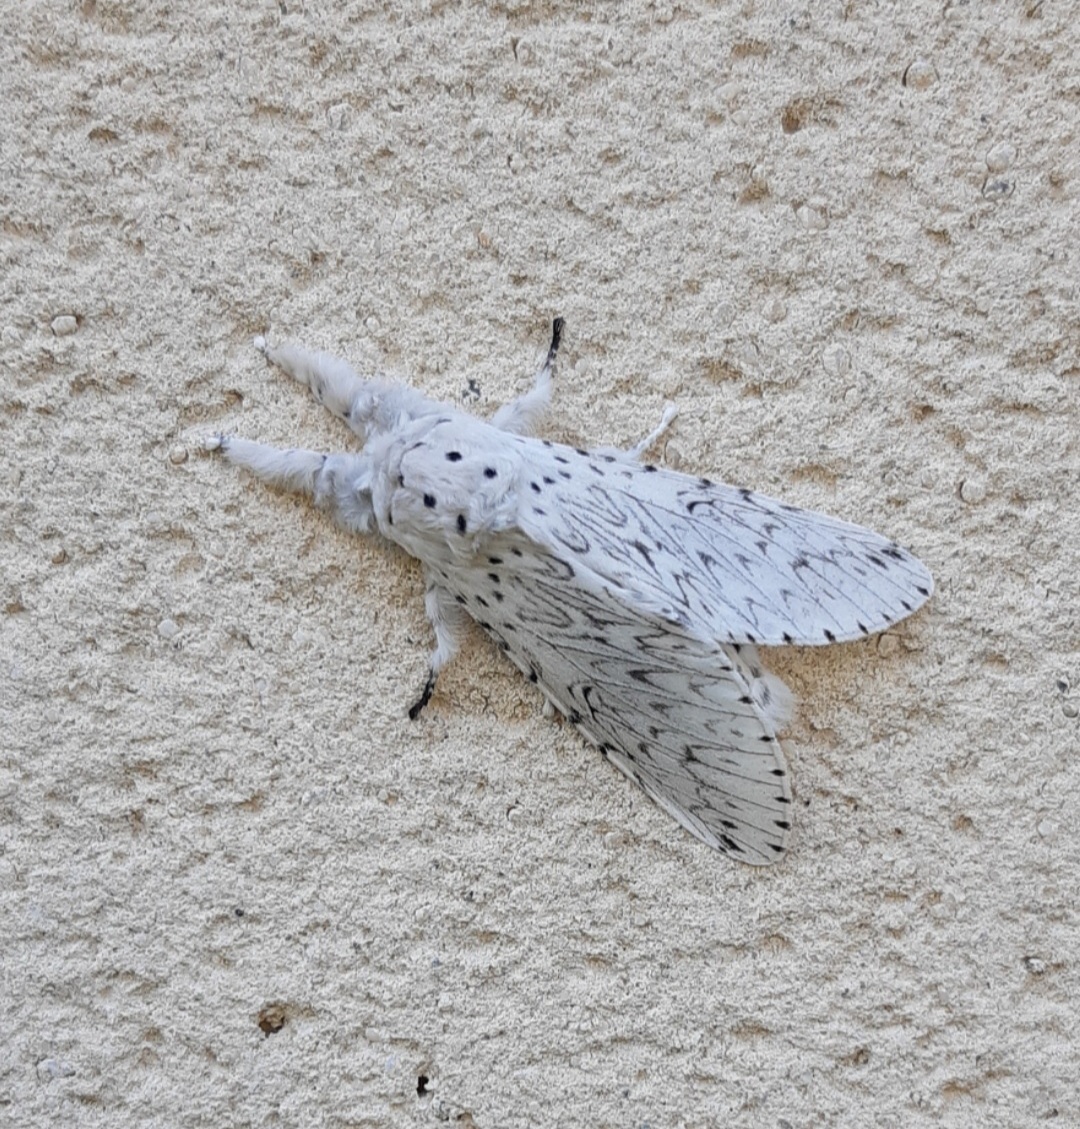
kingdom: Animalia
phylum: Arthropoda
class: Insecta
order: Lepidoptera
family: Notodontidae
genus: Cerura
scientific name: Cerura erminea
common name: Lesser puss moth
